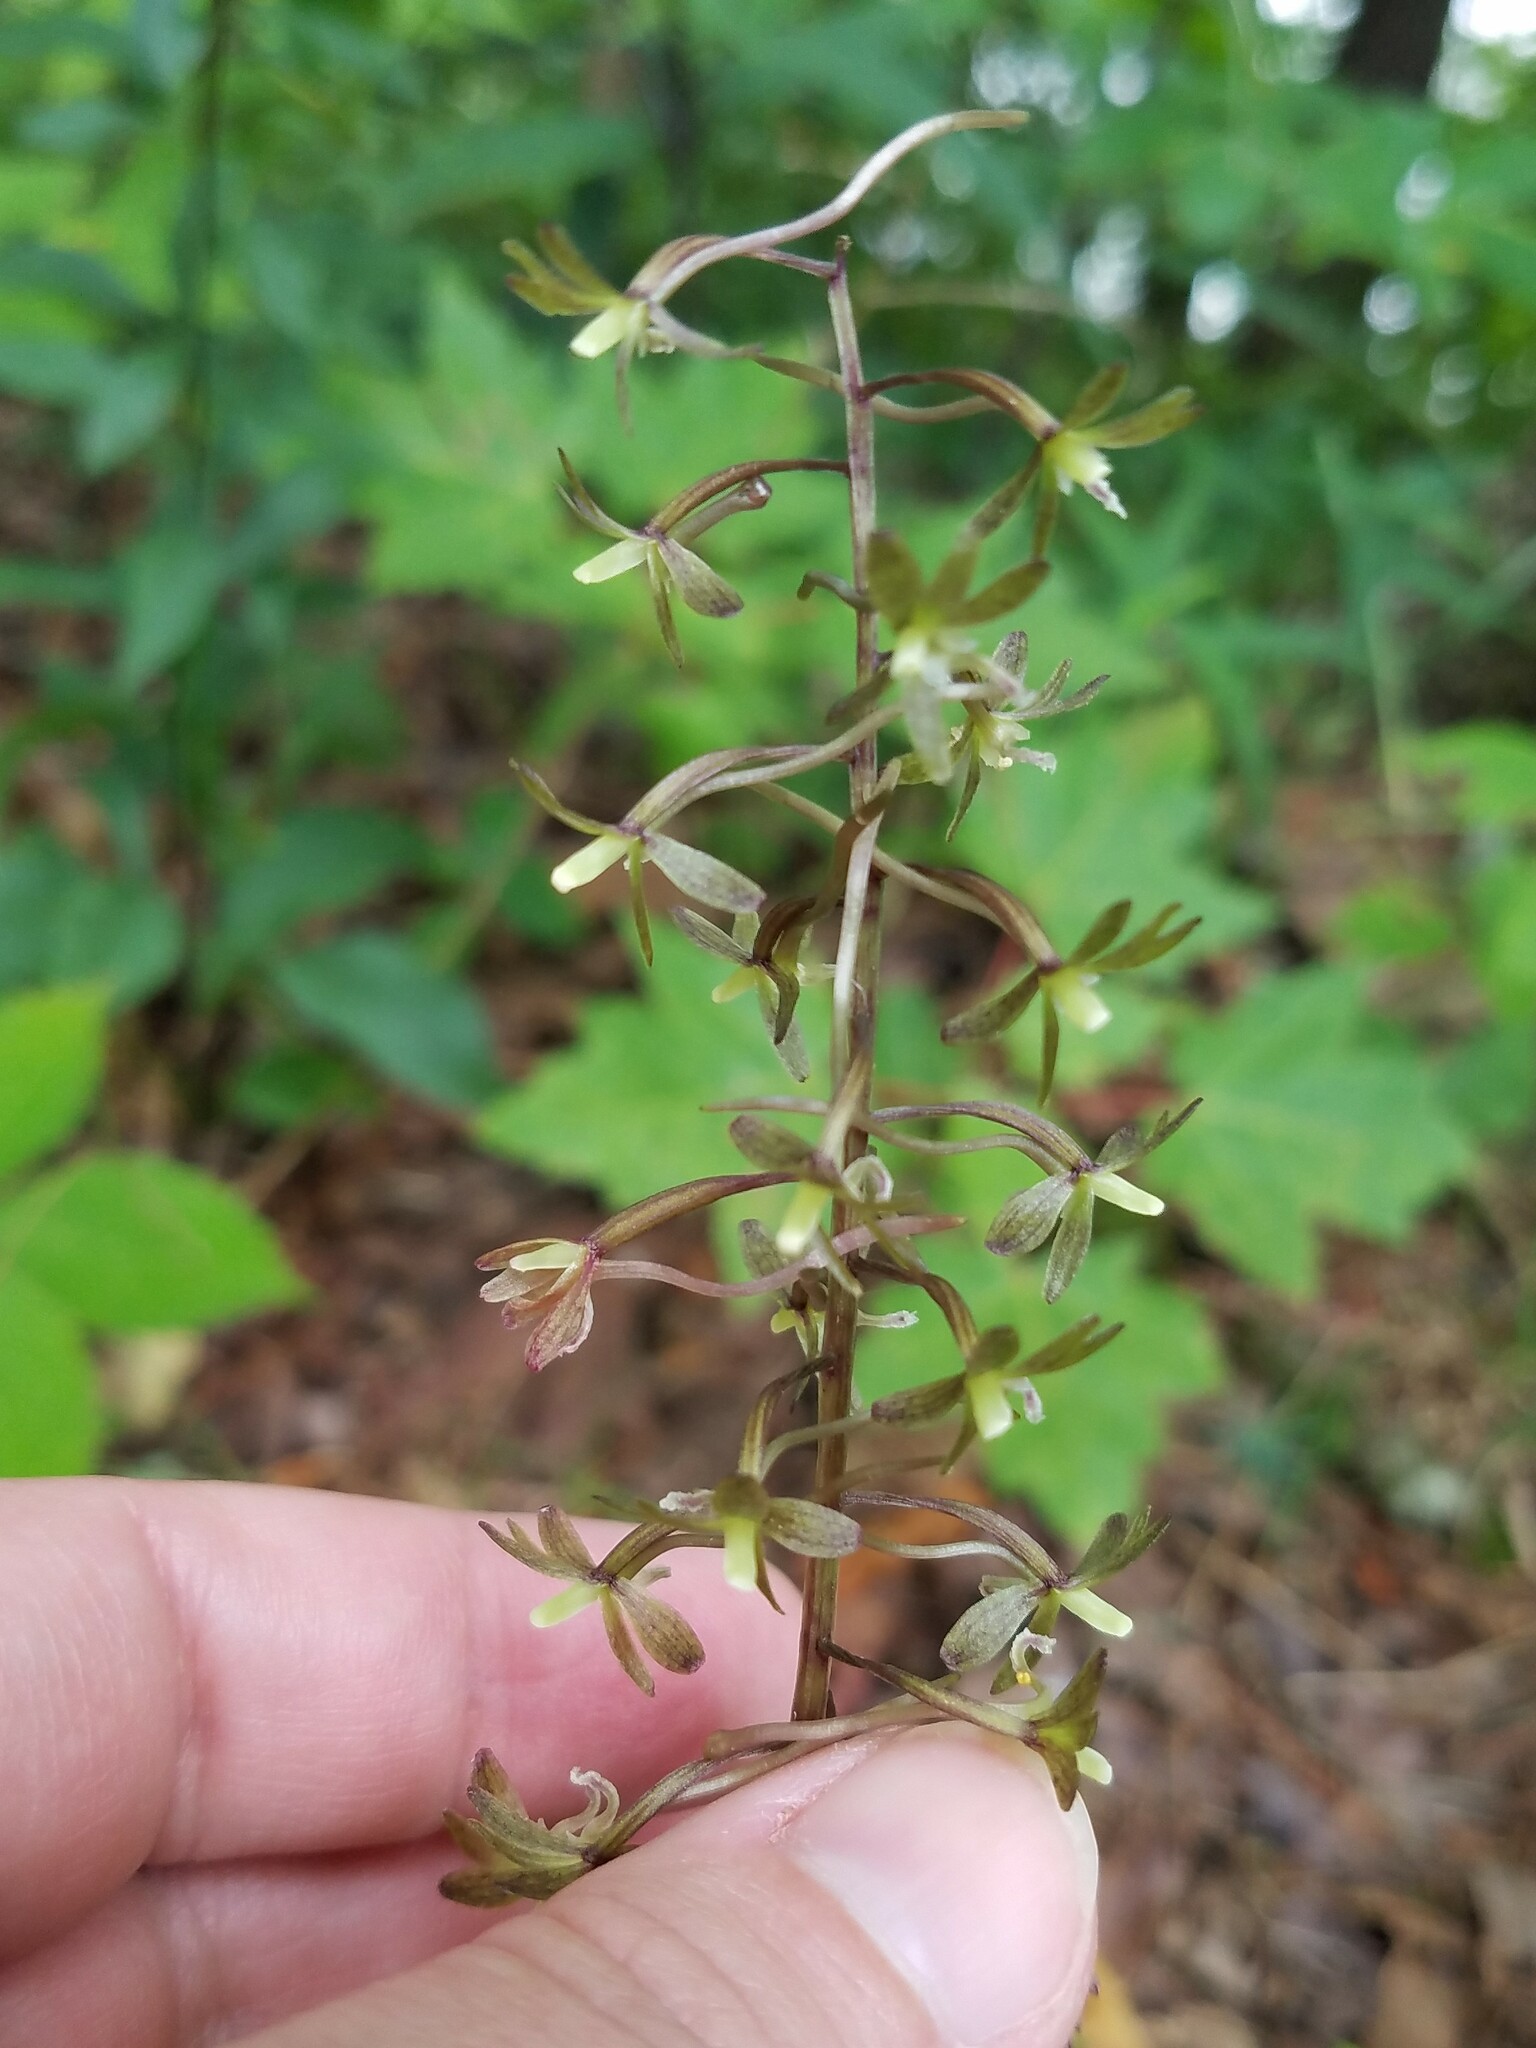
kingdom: Plantae
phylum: Tracheophyta
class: Liliopsida
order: Asparagales
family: Orchidaceae
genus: Tipularia
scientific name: Tipularia discolor
